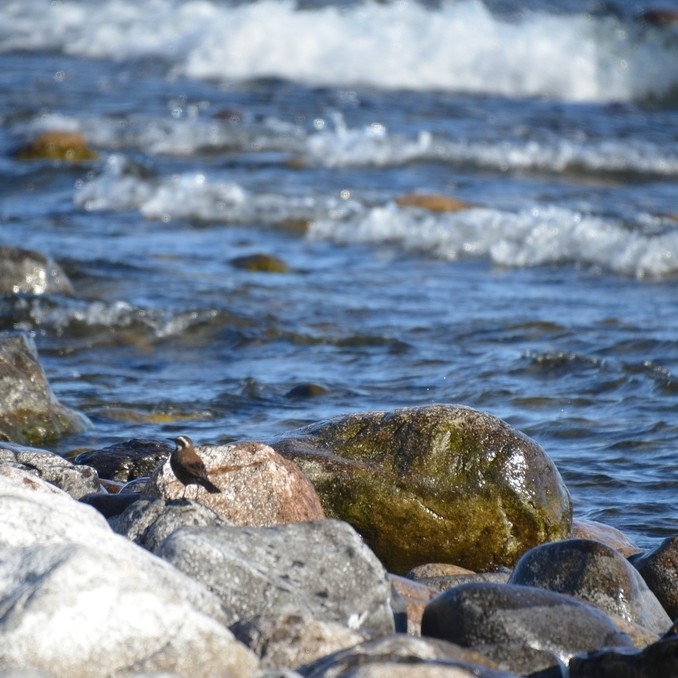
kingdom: Animalia
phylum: Chordata
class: Aves
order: Passeriformes
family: Furnariidae
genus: Cinclodes
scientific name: Cinclodes patagonicus
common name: Dark-bellied cinclodes
